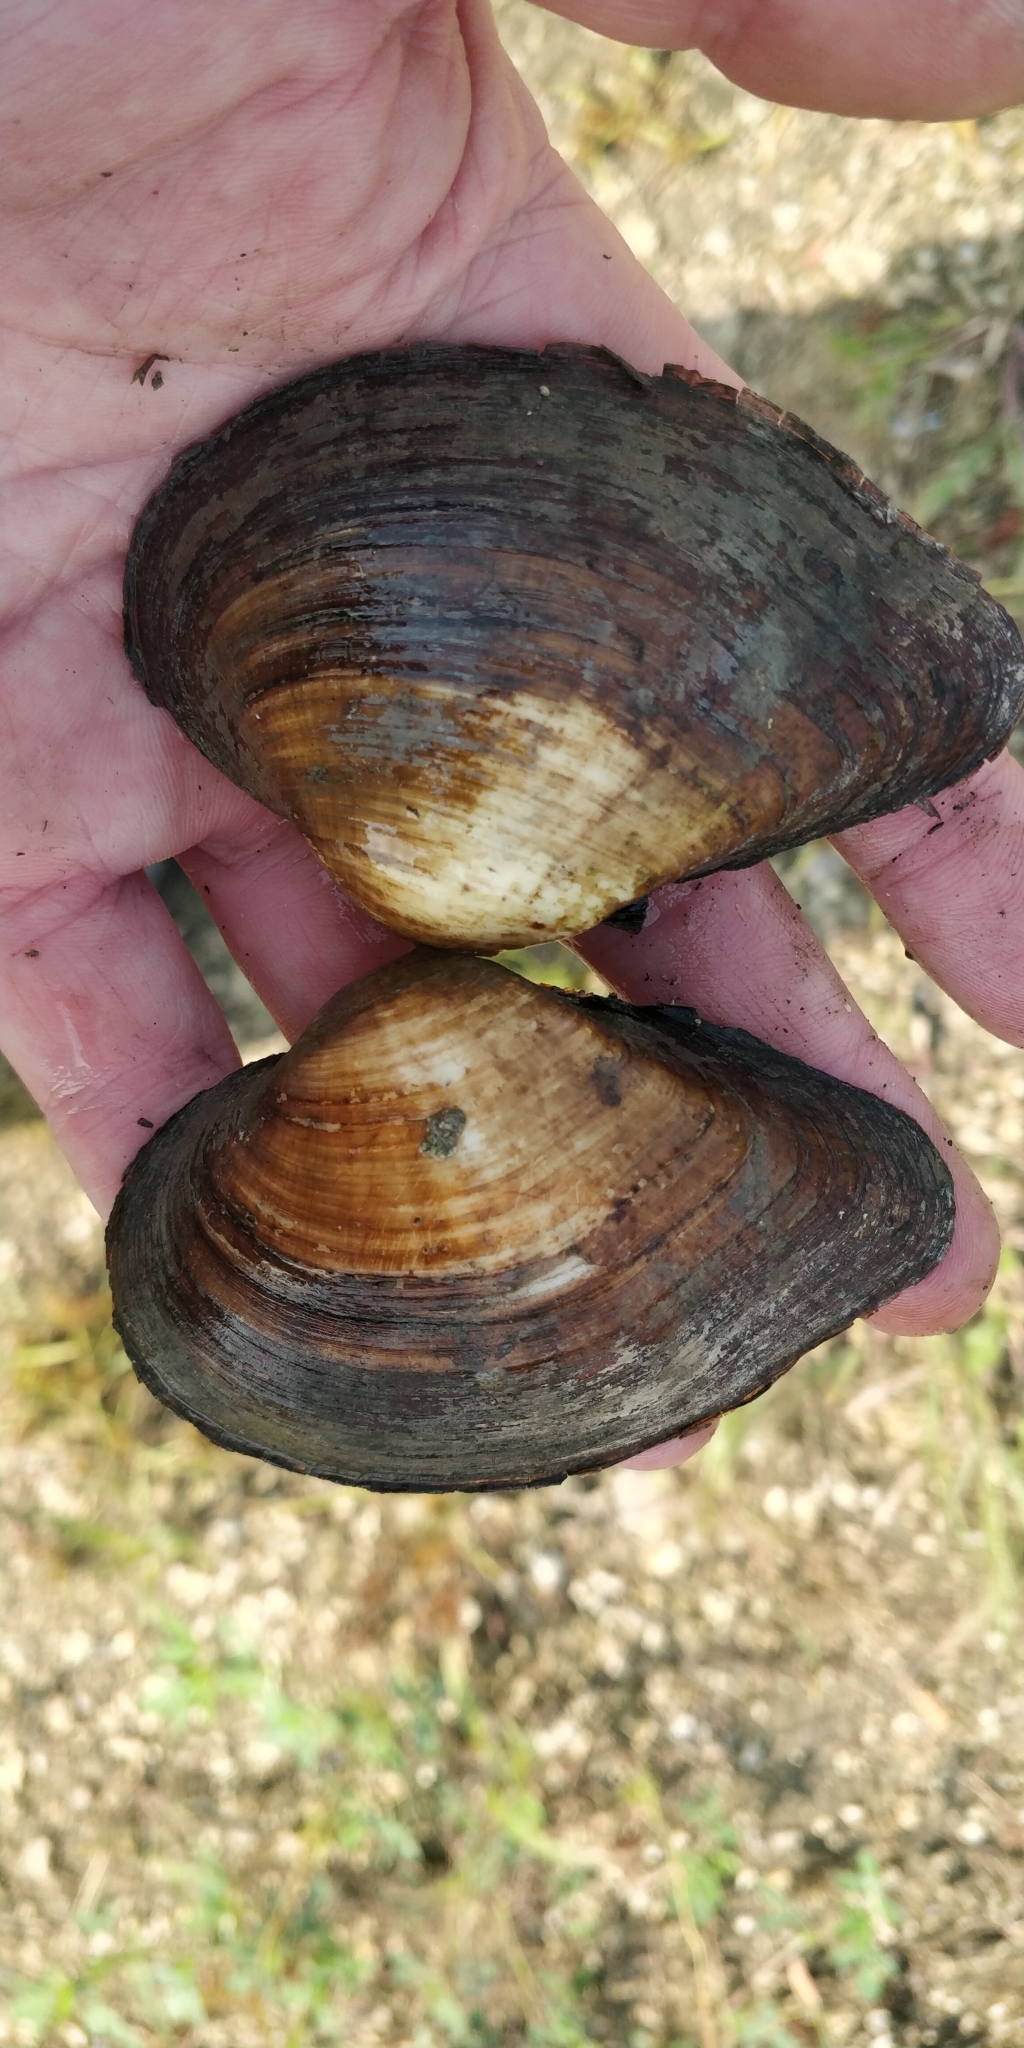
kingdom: Animalia
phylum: Mollusca
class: Bivalvia
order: Unionida
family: Unionidae
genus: Truncilla
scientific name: Truncilla truncata
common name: Deertoe
